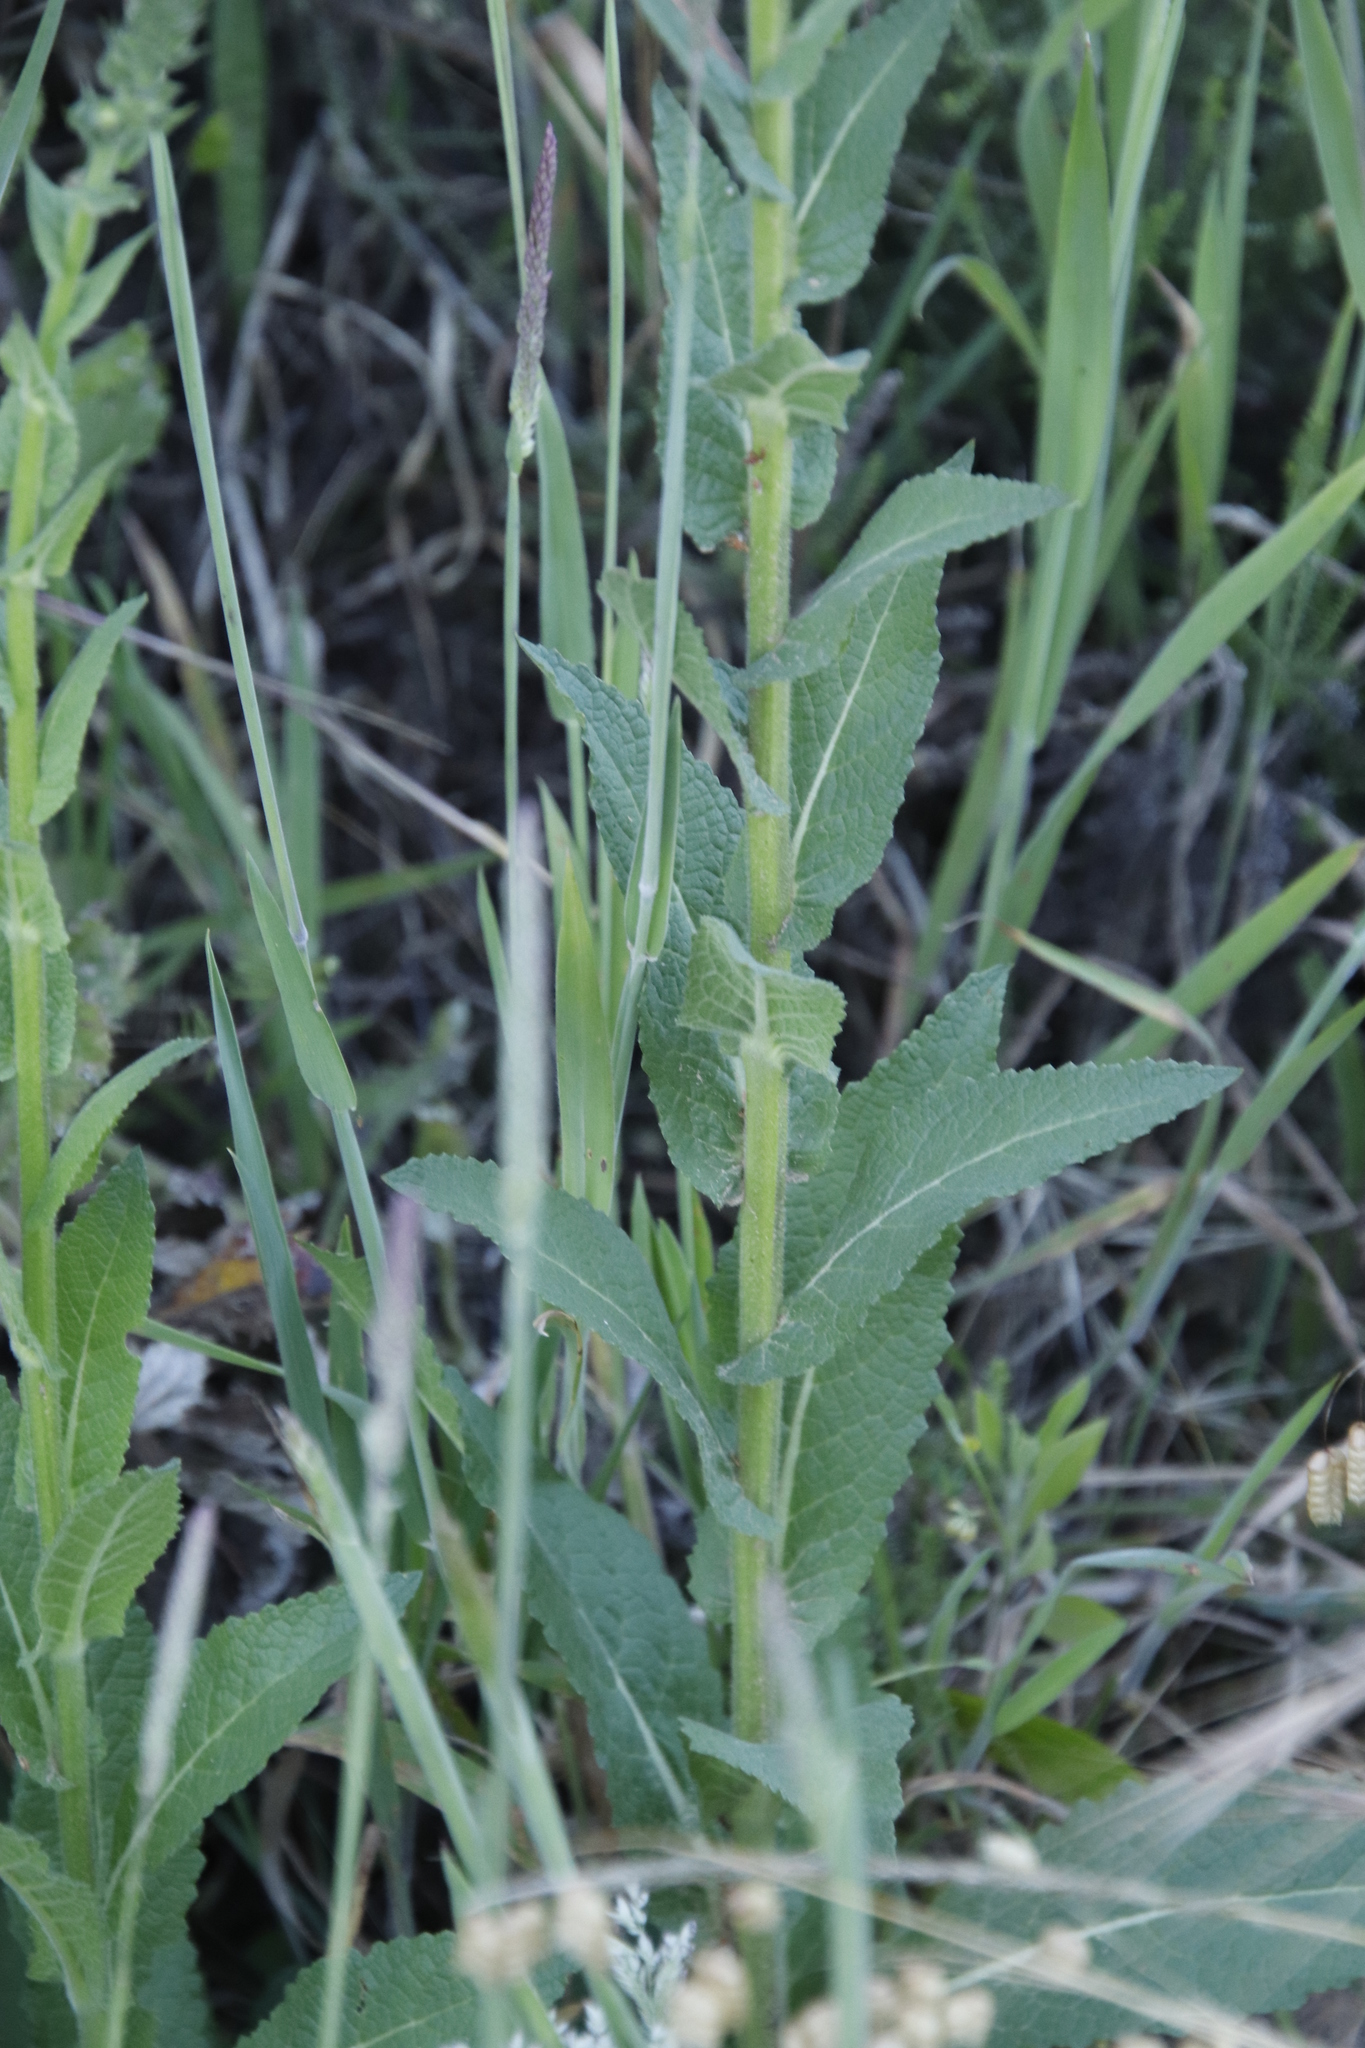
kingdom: Plantae
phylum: Tracheophyta
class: Magnoliopsida
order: Lamiales
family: Scrophulariaceae
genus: Verbascum
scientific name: Verbascum virgatum
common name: Twiggy mullein
